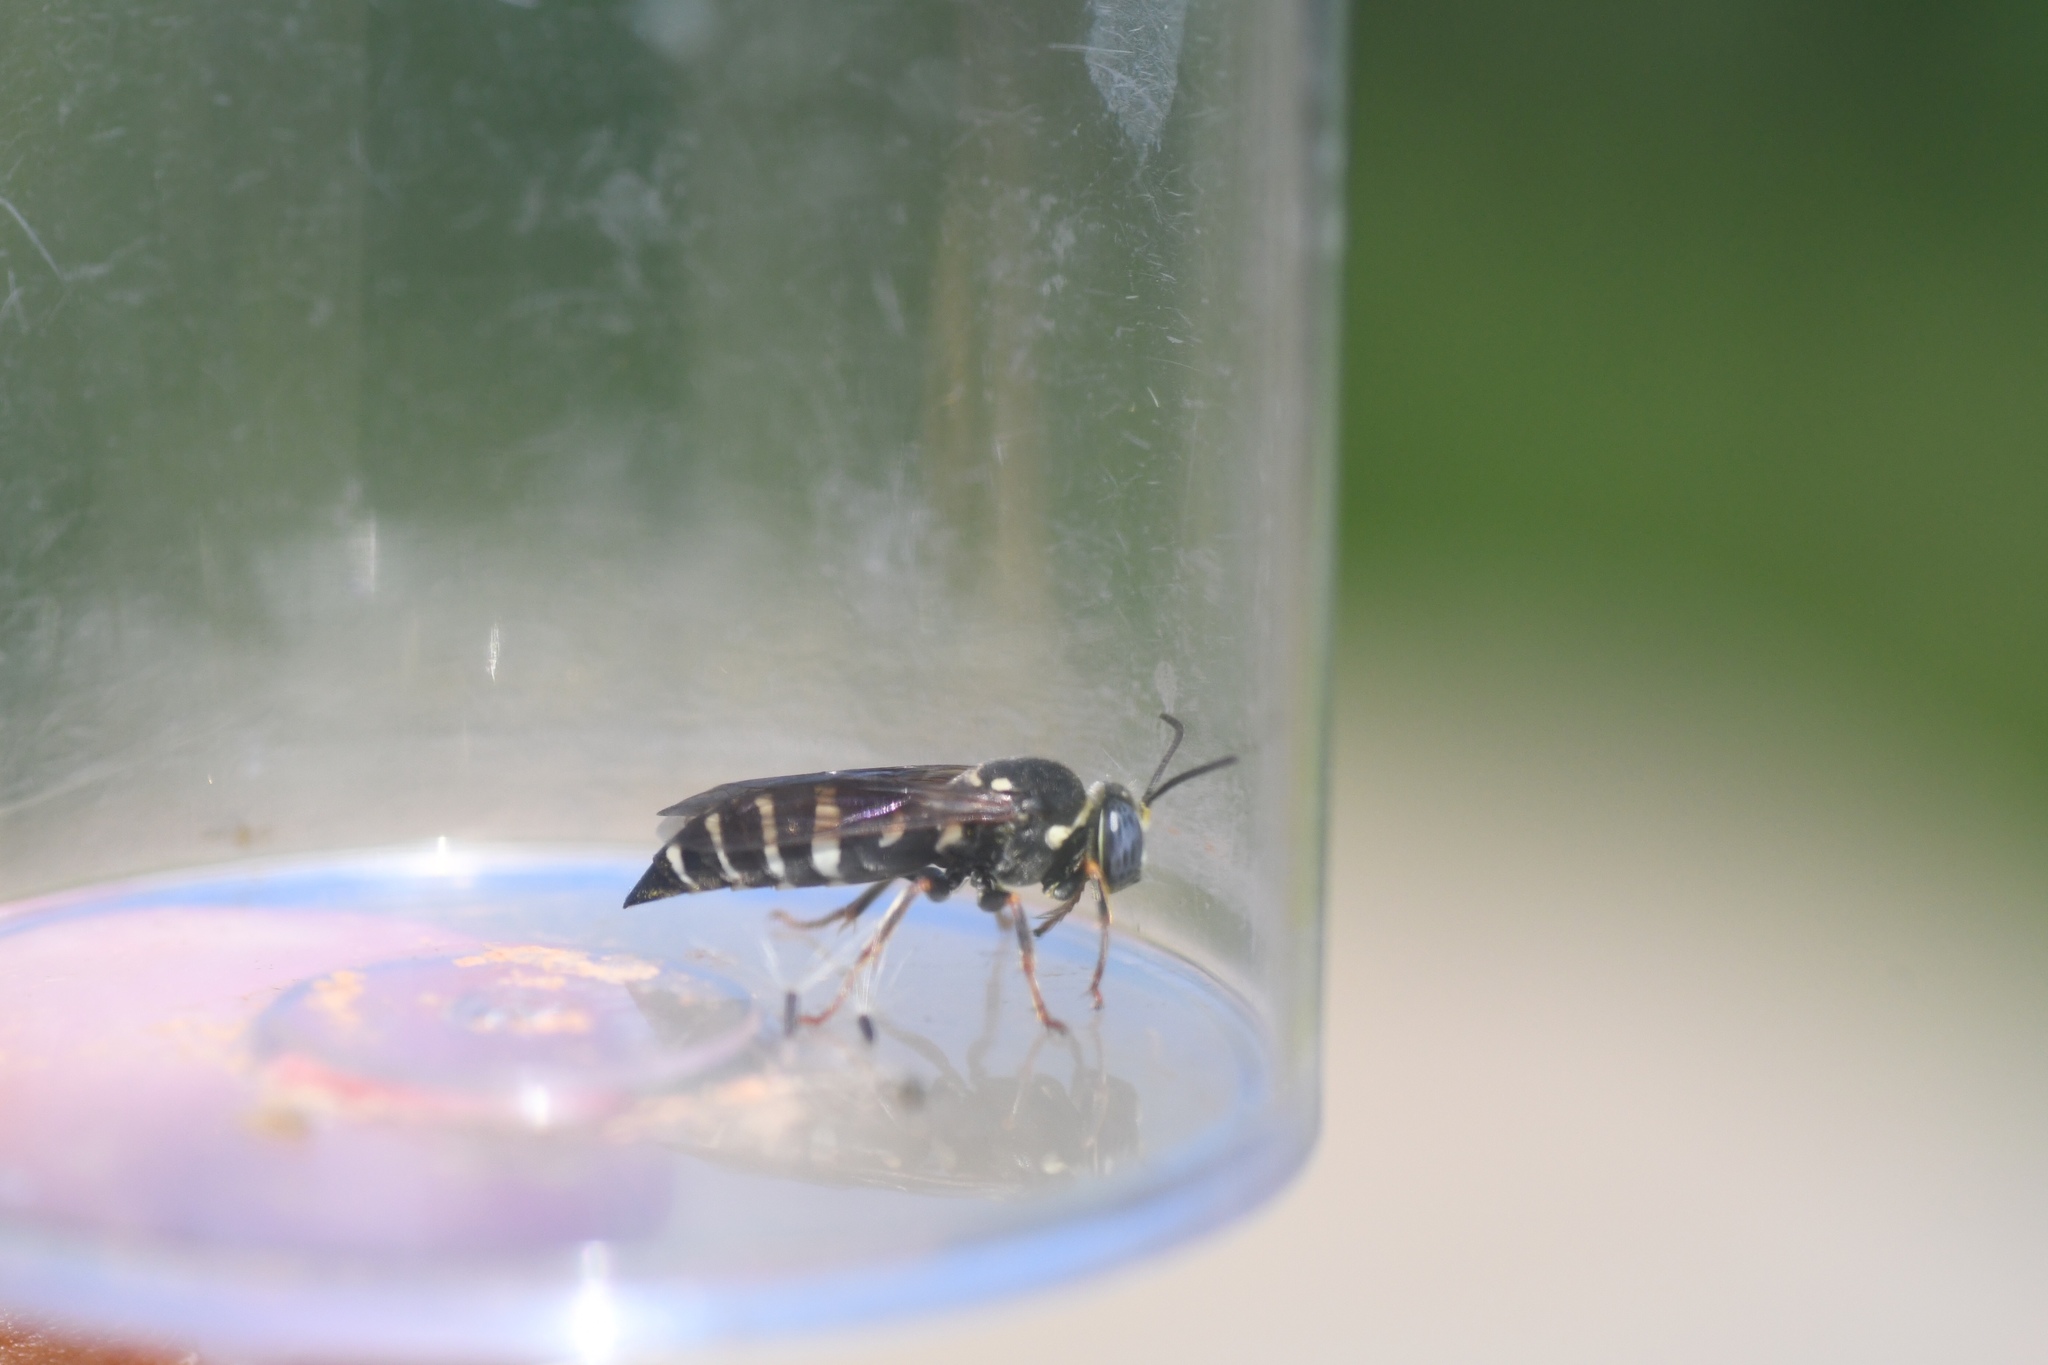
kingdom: Animalia
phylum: Arthropoda
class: Insecta
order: Hymenoptera
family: Crabronidae
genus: Bicyrtes
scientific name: Bicyrtes ventralis
